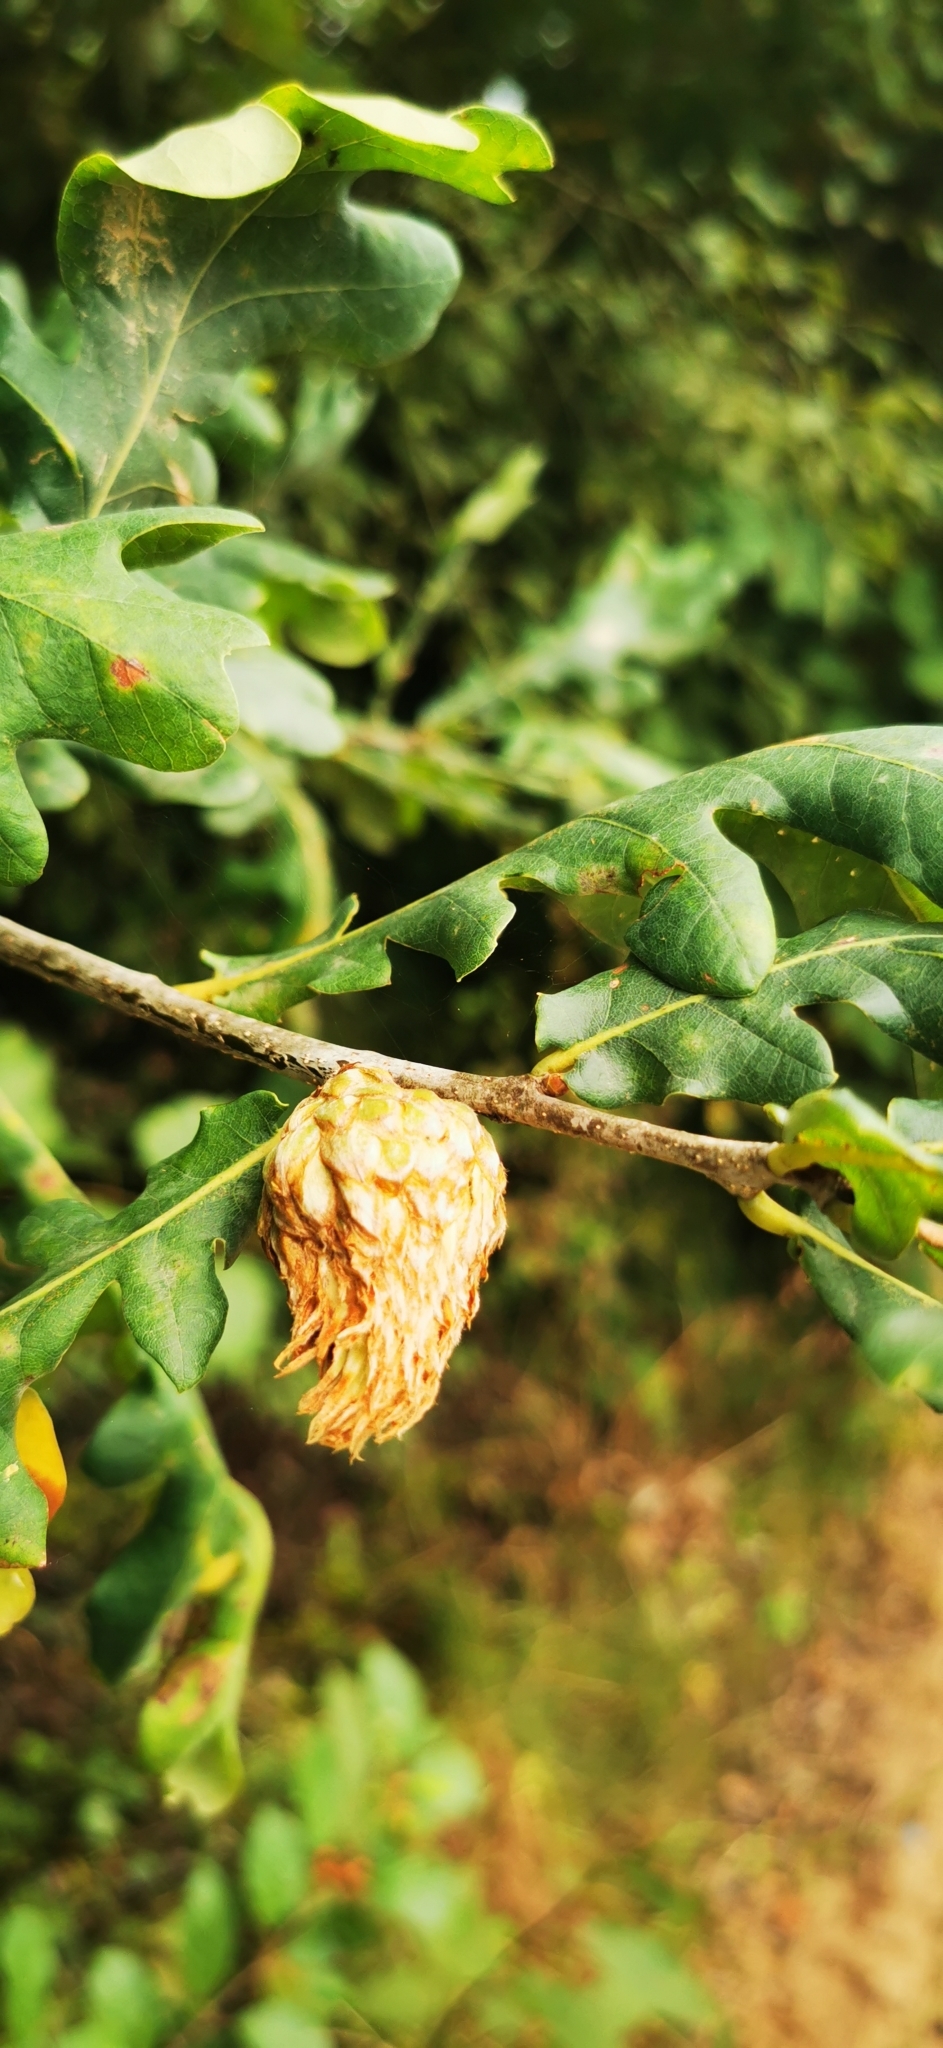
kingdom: Animalia
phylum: Arthropoda
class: Insecta
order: Hymenoptera
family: Cynipidae
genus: Andricus
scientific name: Andricus foecundatrix
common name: Artichoke gall
